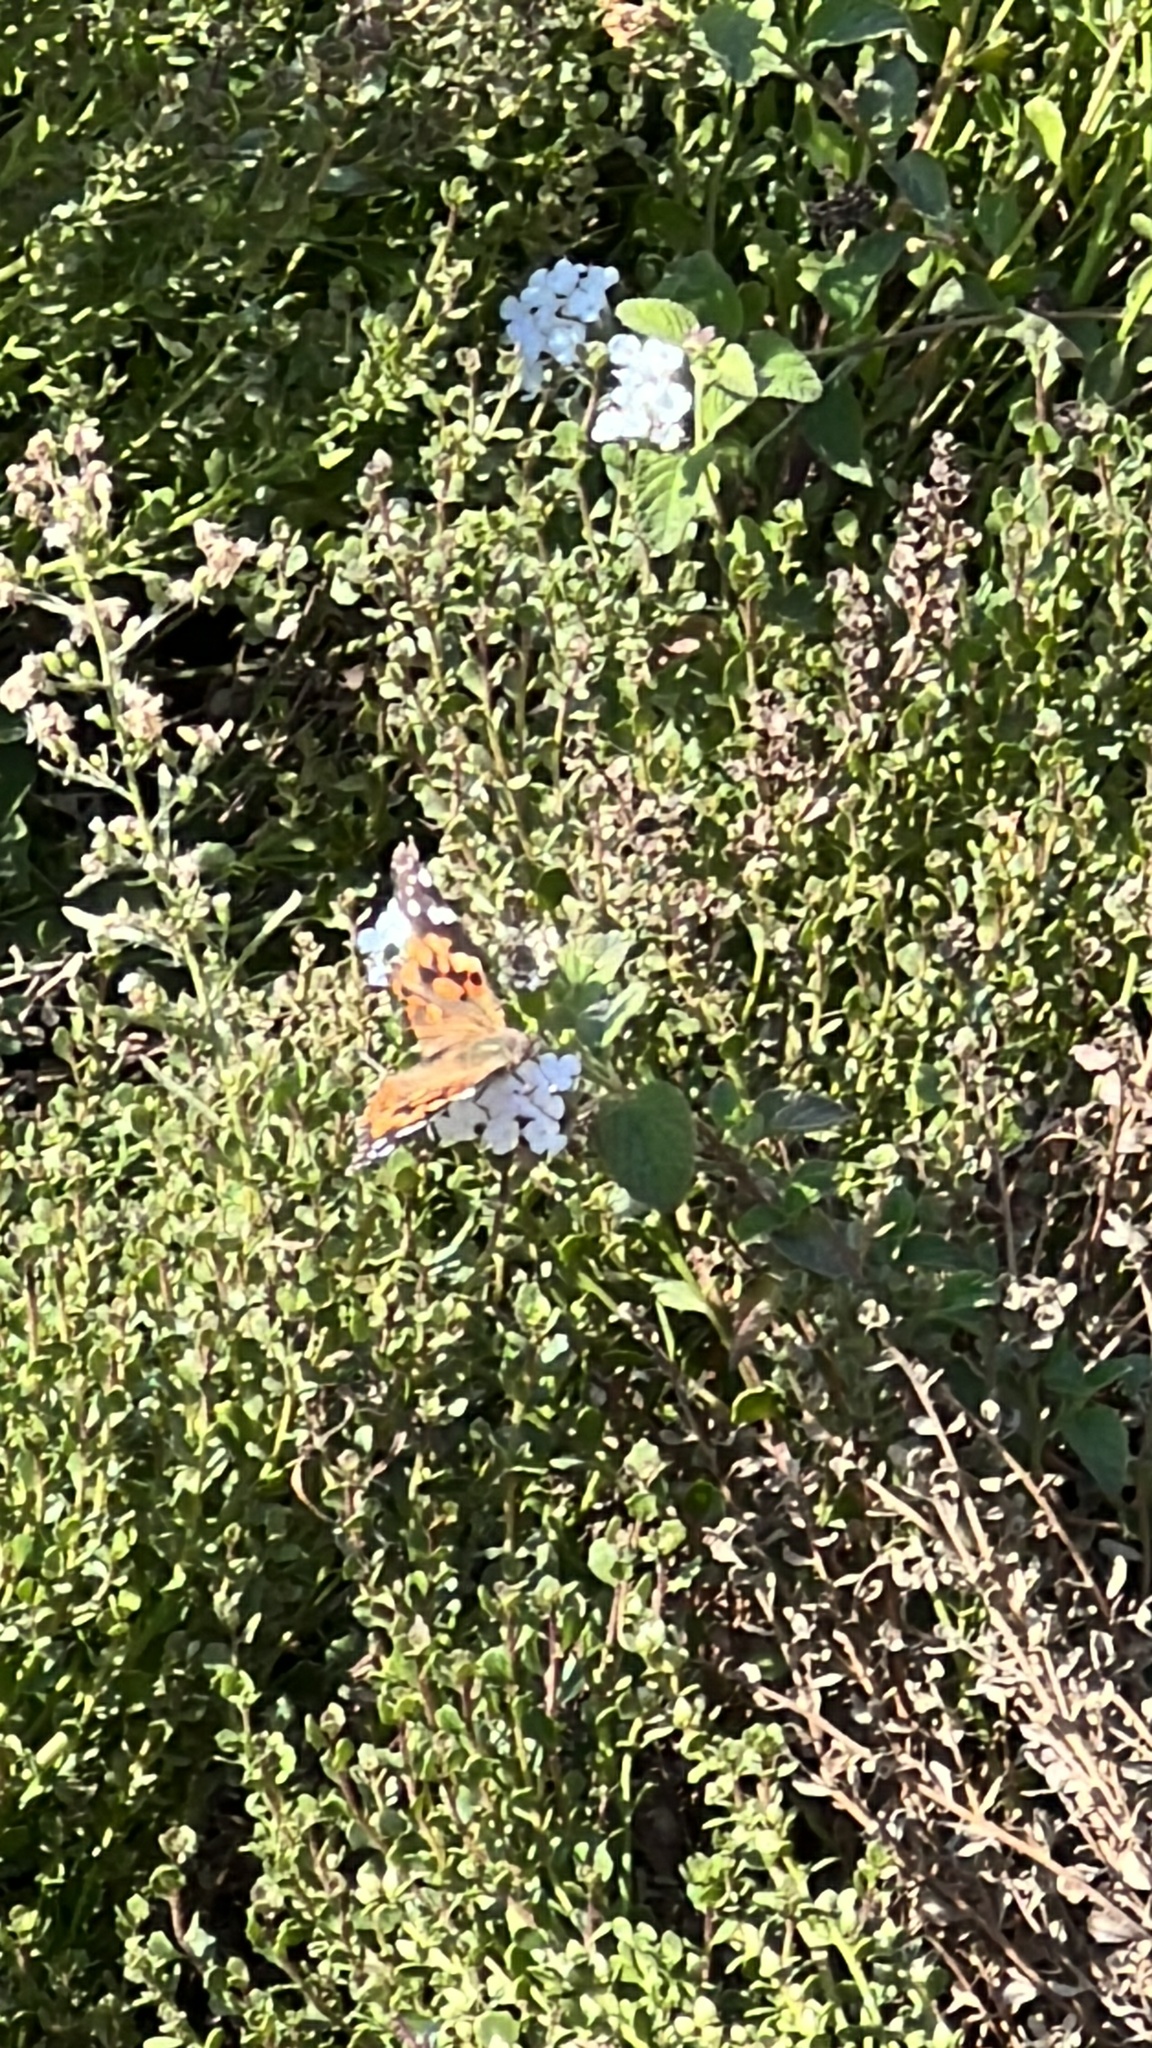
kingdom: Animalia
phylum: Arthropoda
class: Insecta
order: Lepidoptera
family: Nymphalidae
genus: Vanessa
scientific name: Vanessa cardui
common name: Painted lady
